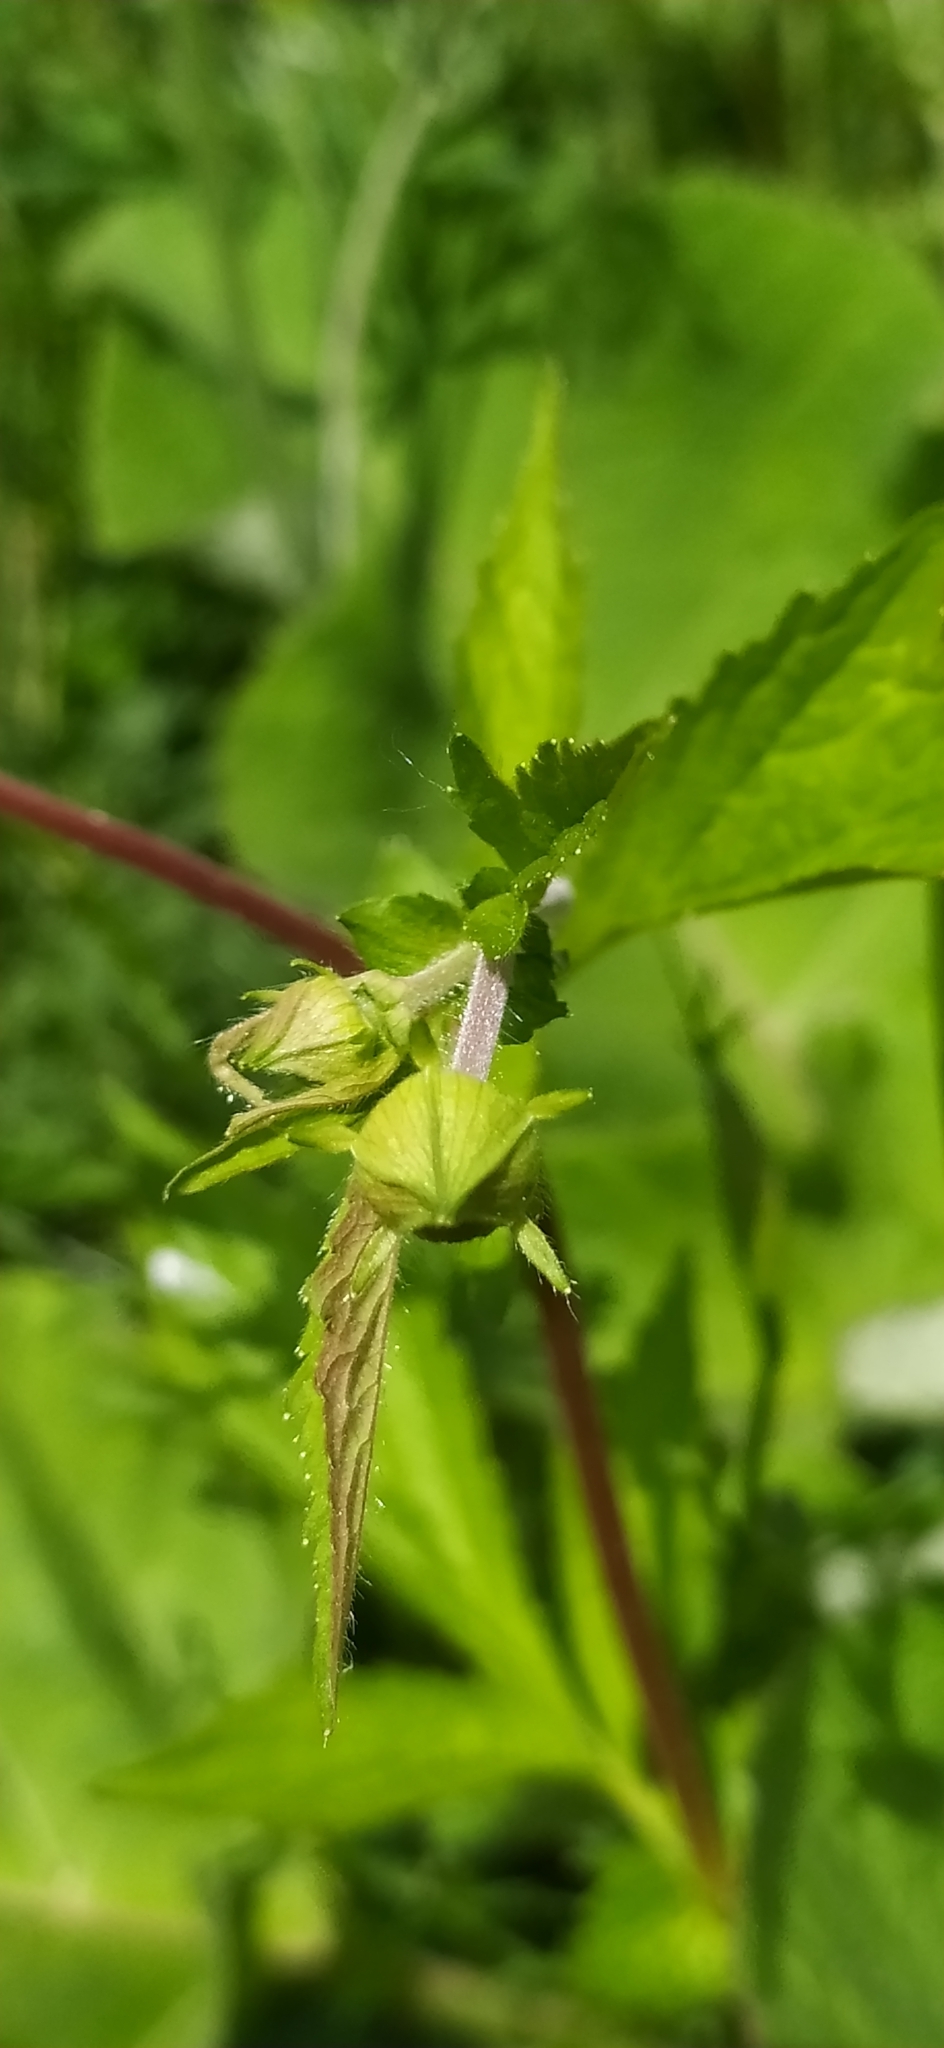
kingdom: Plantae
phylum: Tracheophyta
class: Magnoliopsida
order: Rosales
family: Rosaceae
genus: Geum
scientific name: Geum aleppicum
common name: Yellow avens
